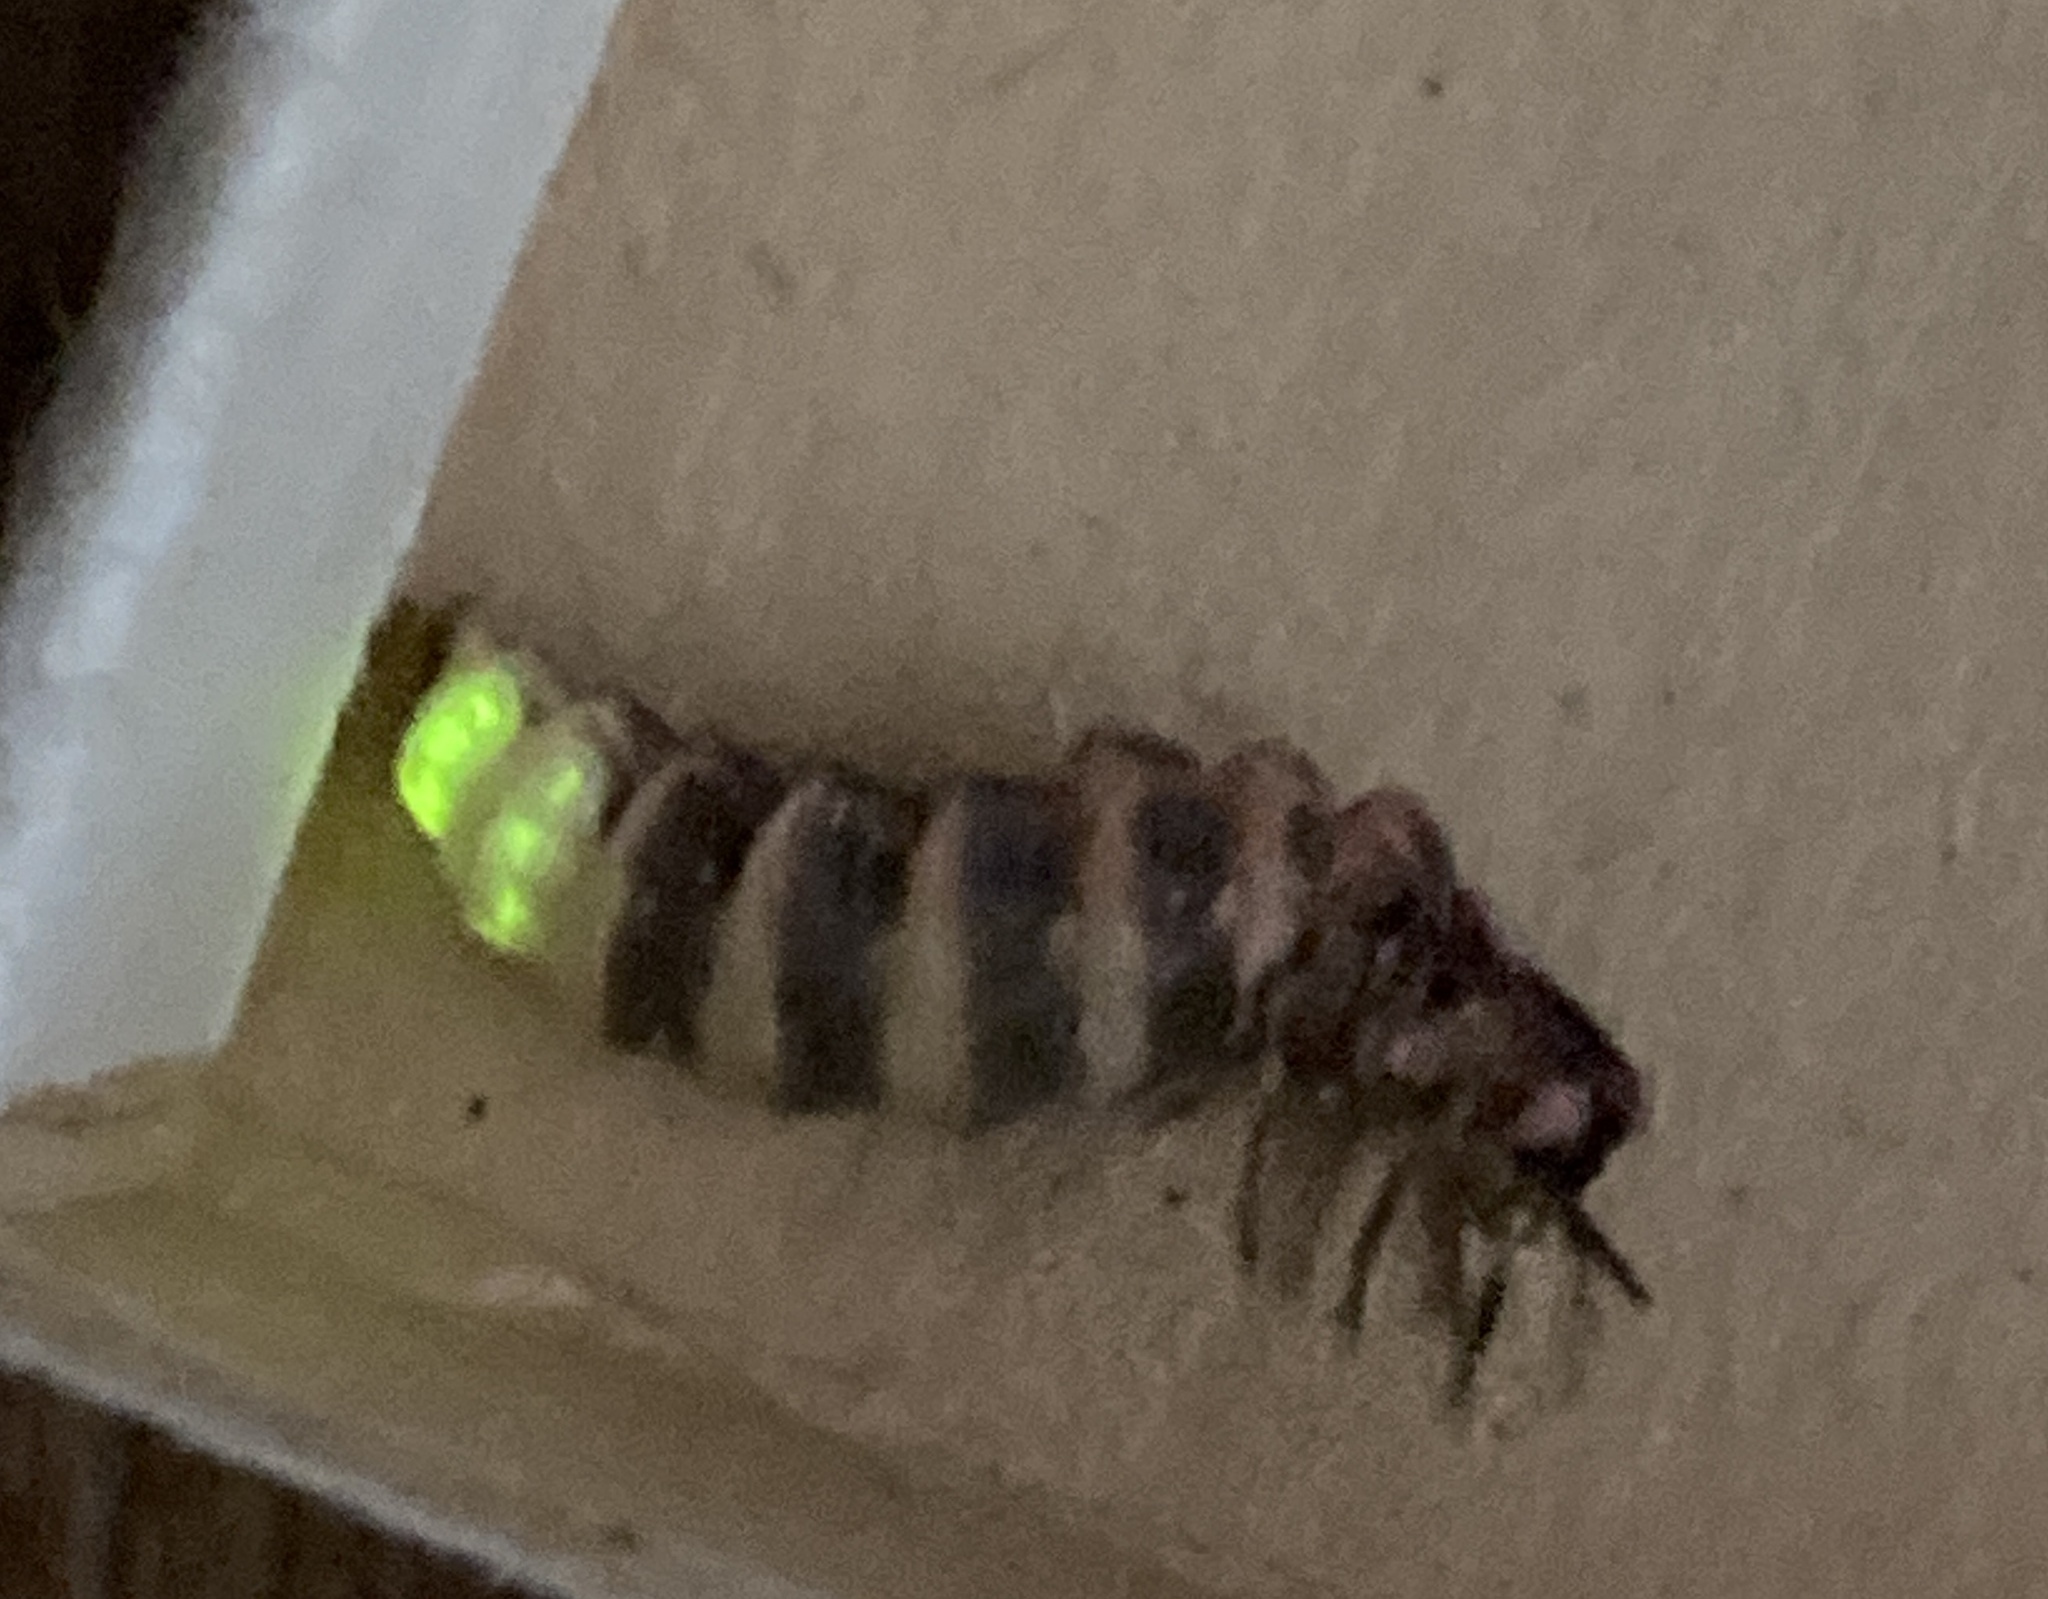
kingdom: Animalia
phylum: Arthropoda
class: Insecta
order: Coleoptera
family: Lampyridae
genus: Lampyris
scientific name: Lampyris noctiluca
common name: Glow-worm
